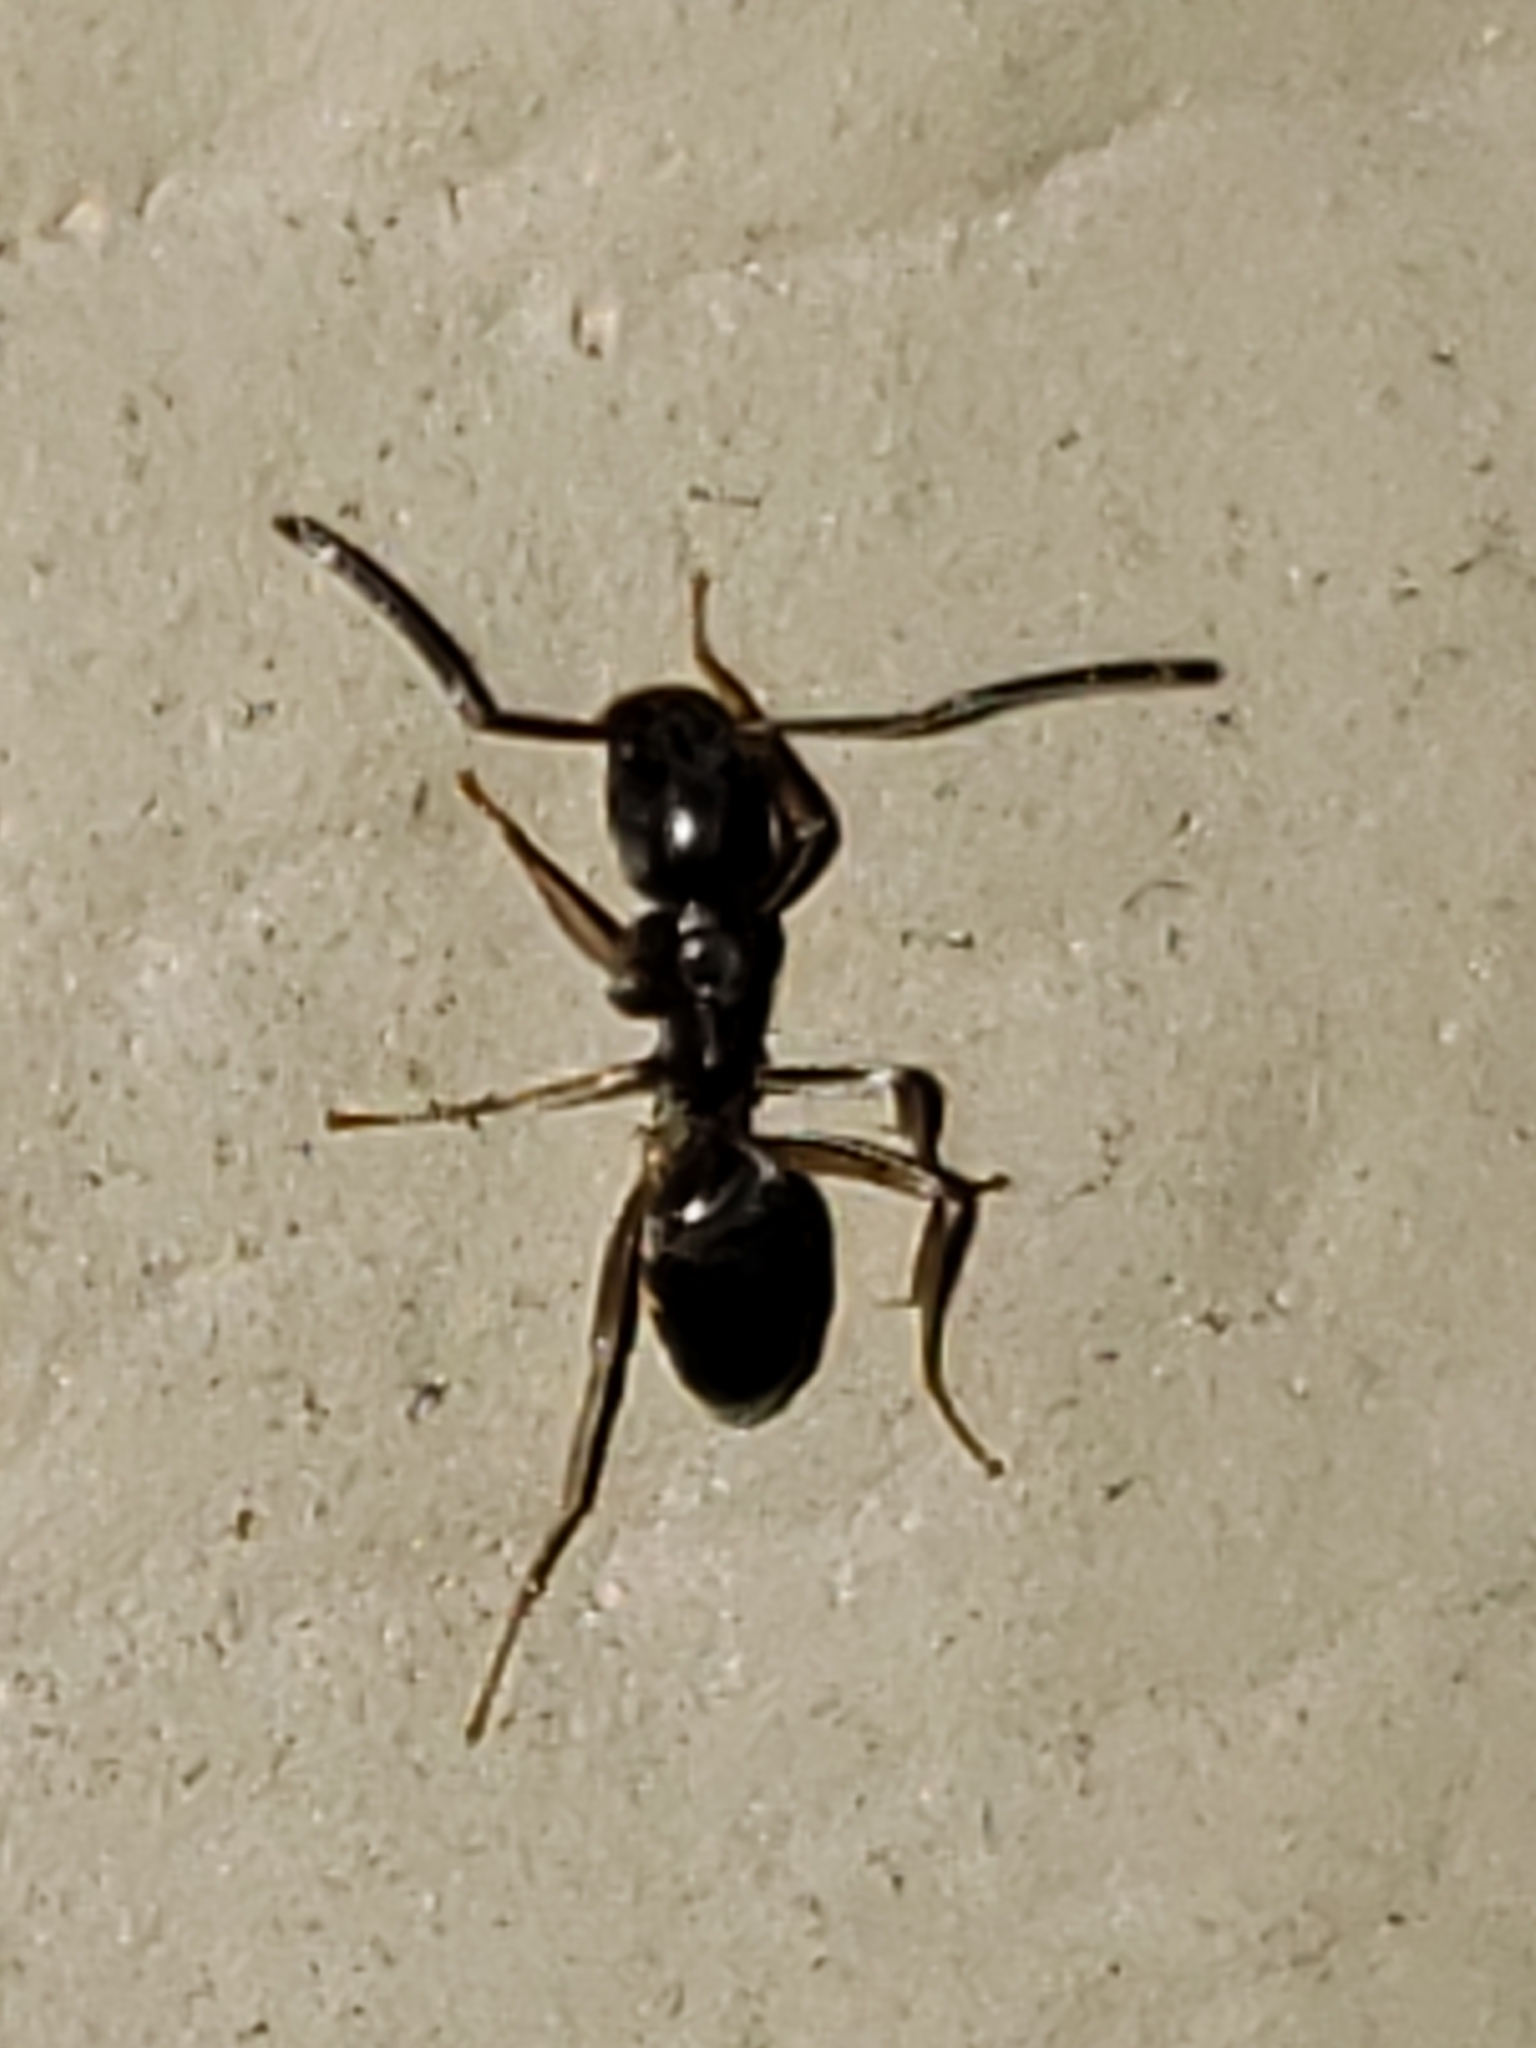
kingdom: Animalia
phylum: Arthropoda
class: Insecta
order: Hymenoptera
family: Formicidae
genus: Tapinoma
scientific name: Tapinoma sessile
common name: Odorous house ant
